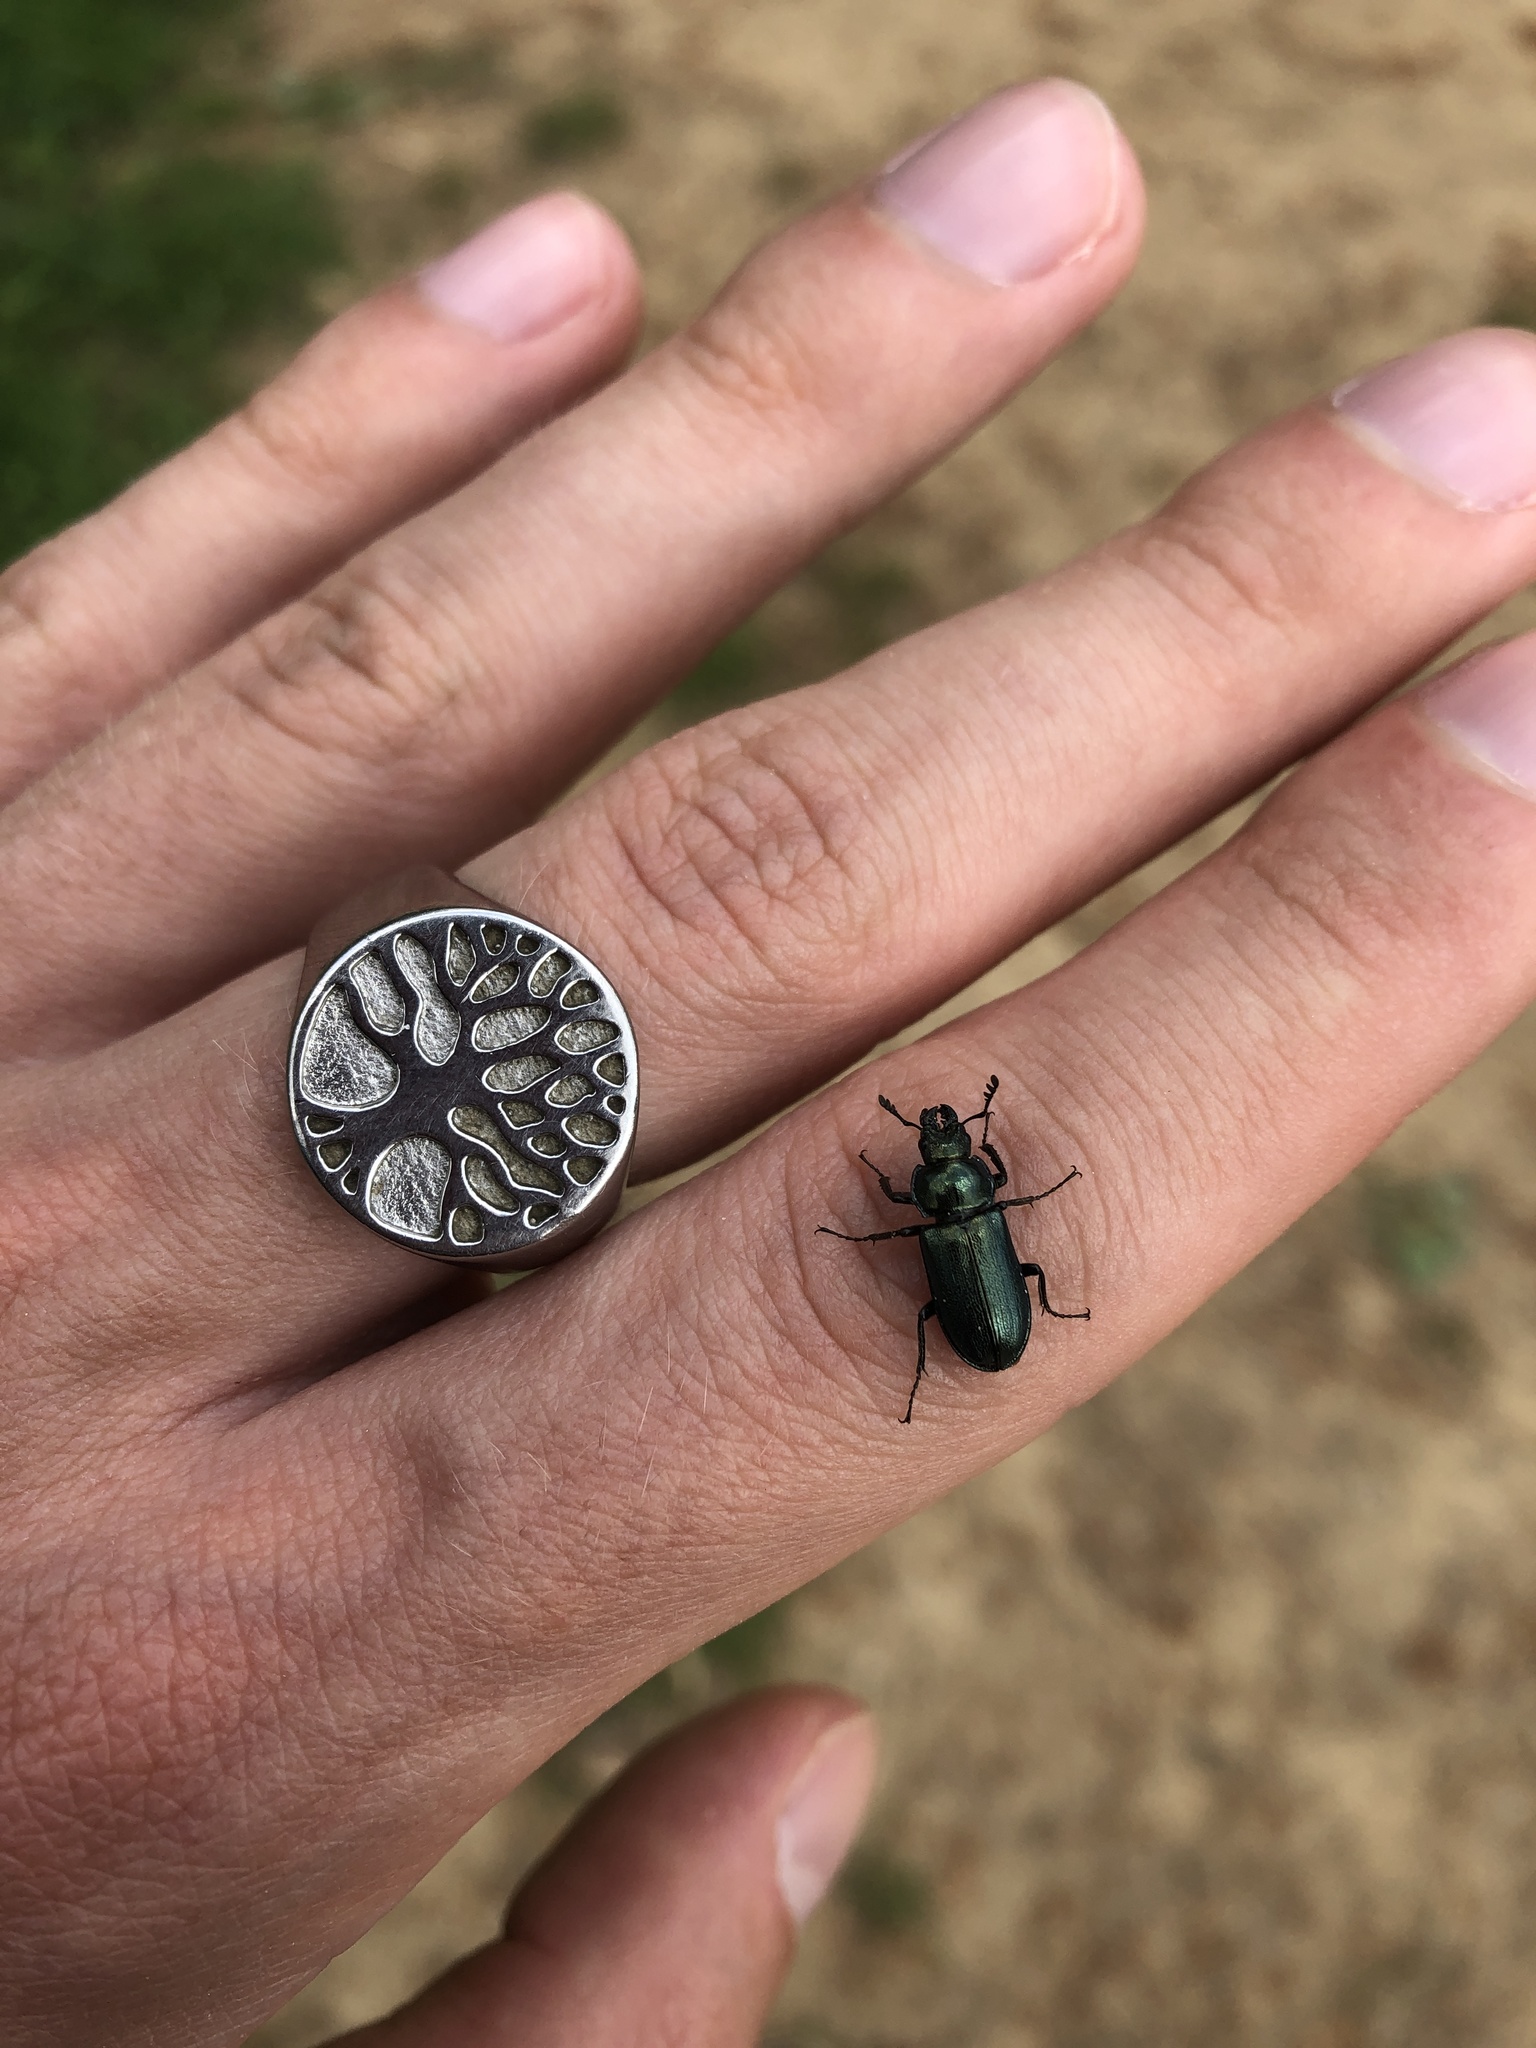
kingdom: Animalia
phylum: Arthropoda
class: Insecta
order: Coleoptera
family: Lucanidae
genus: Platycerus
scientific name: Platycerus caraboides
